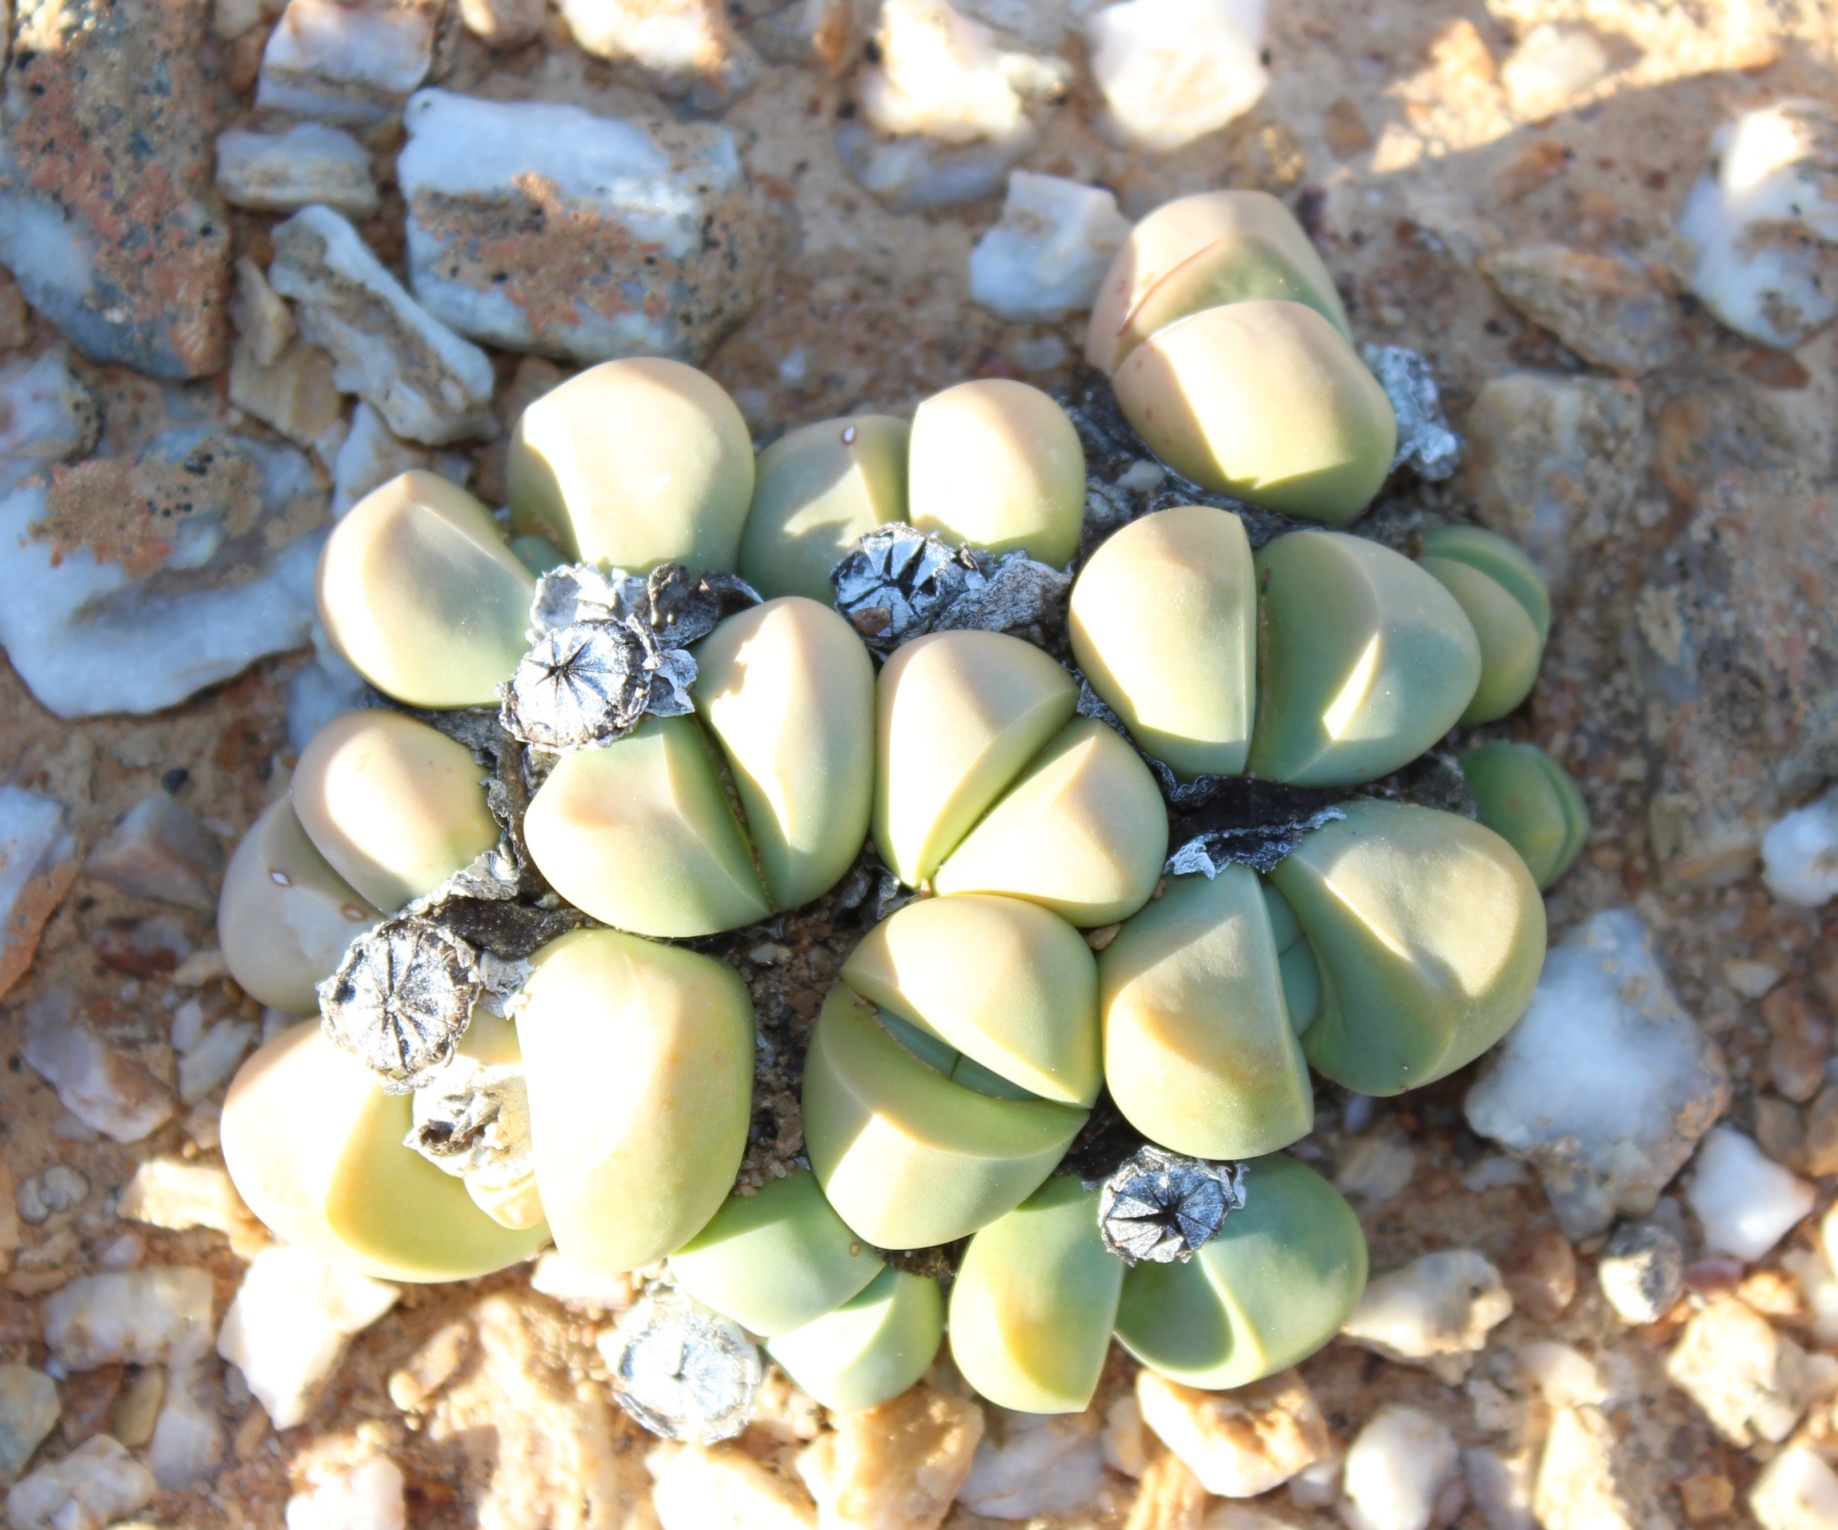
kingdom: Plantae
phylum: Tracheophyta
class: Magnoliopsida
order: Caryophyllales
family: Aizoaceae
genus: Argyroderma
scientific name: Argyroderma framesii
